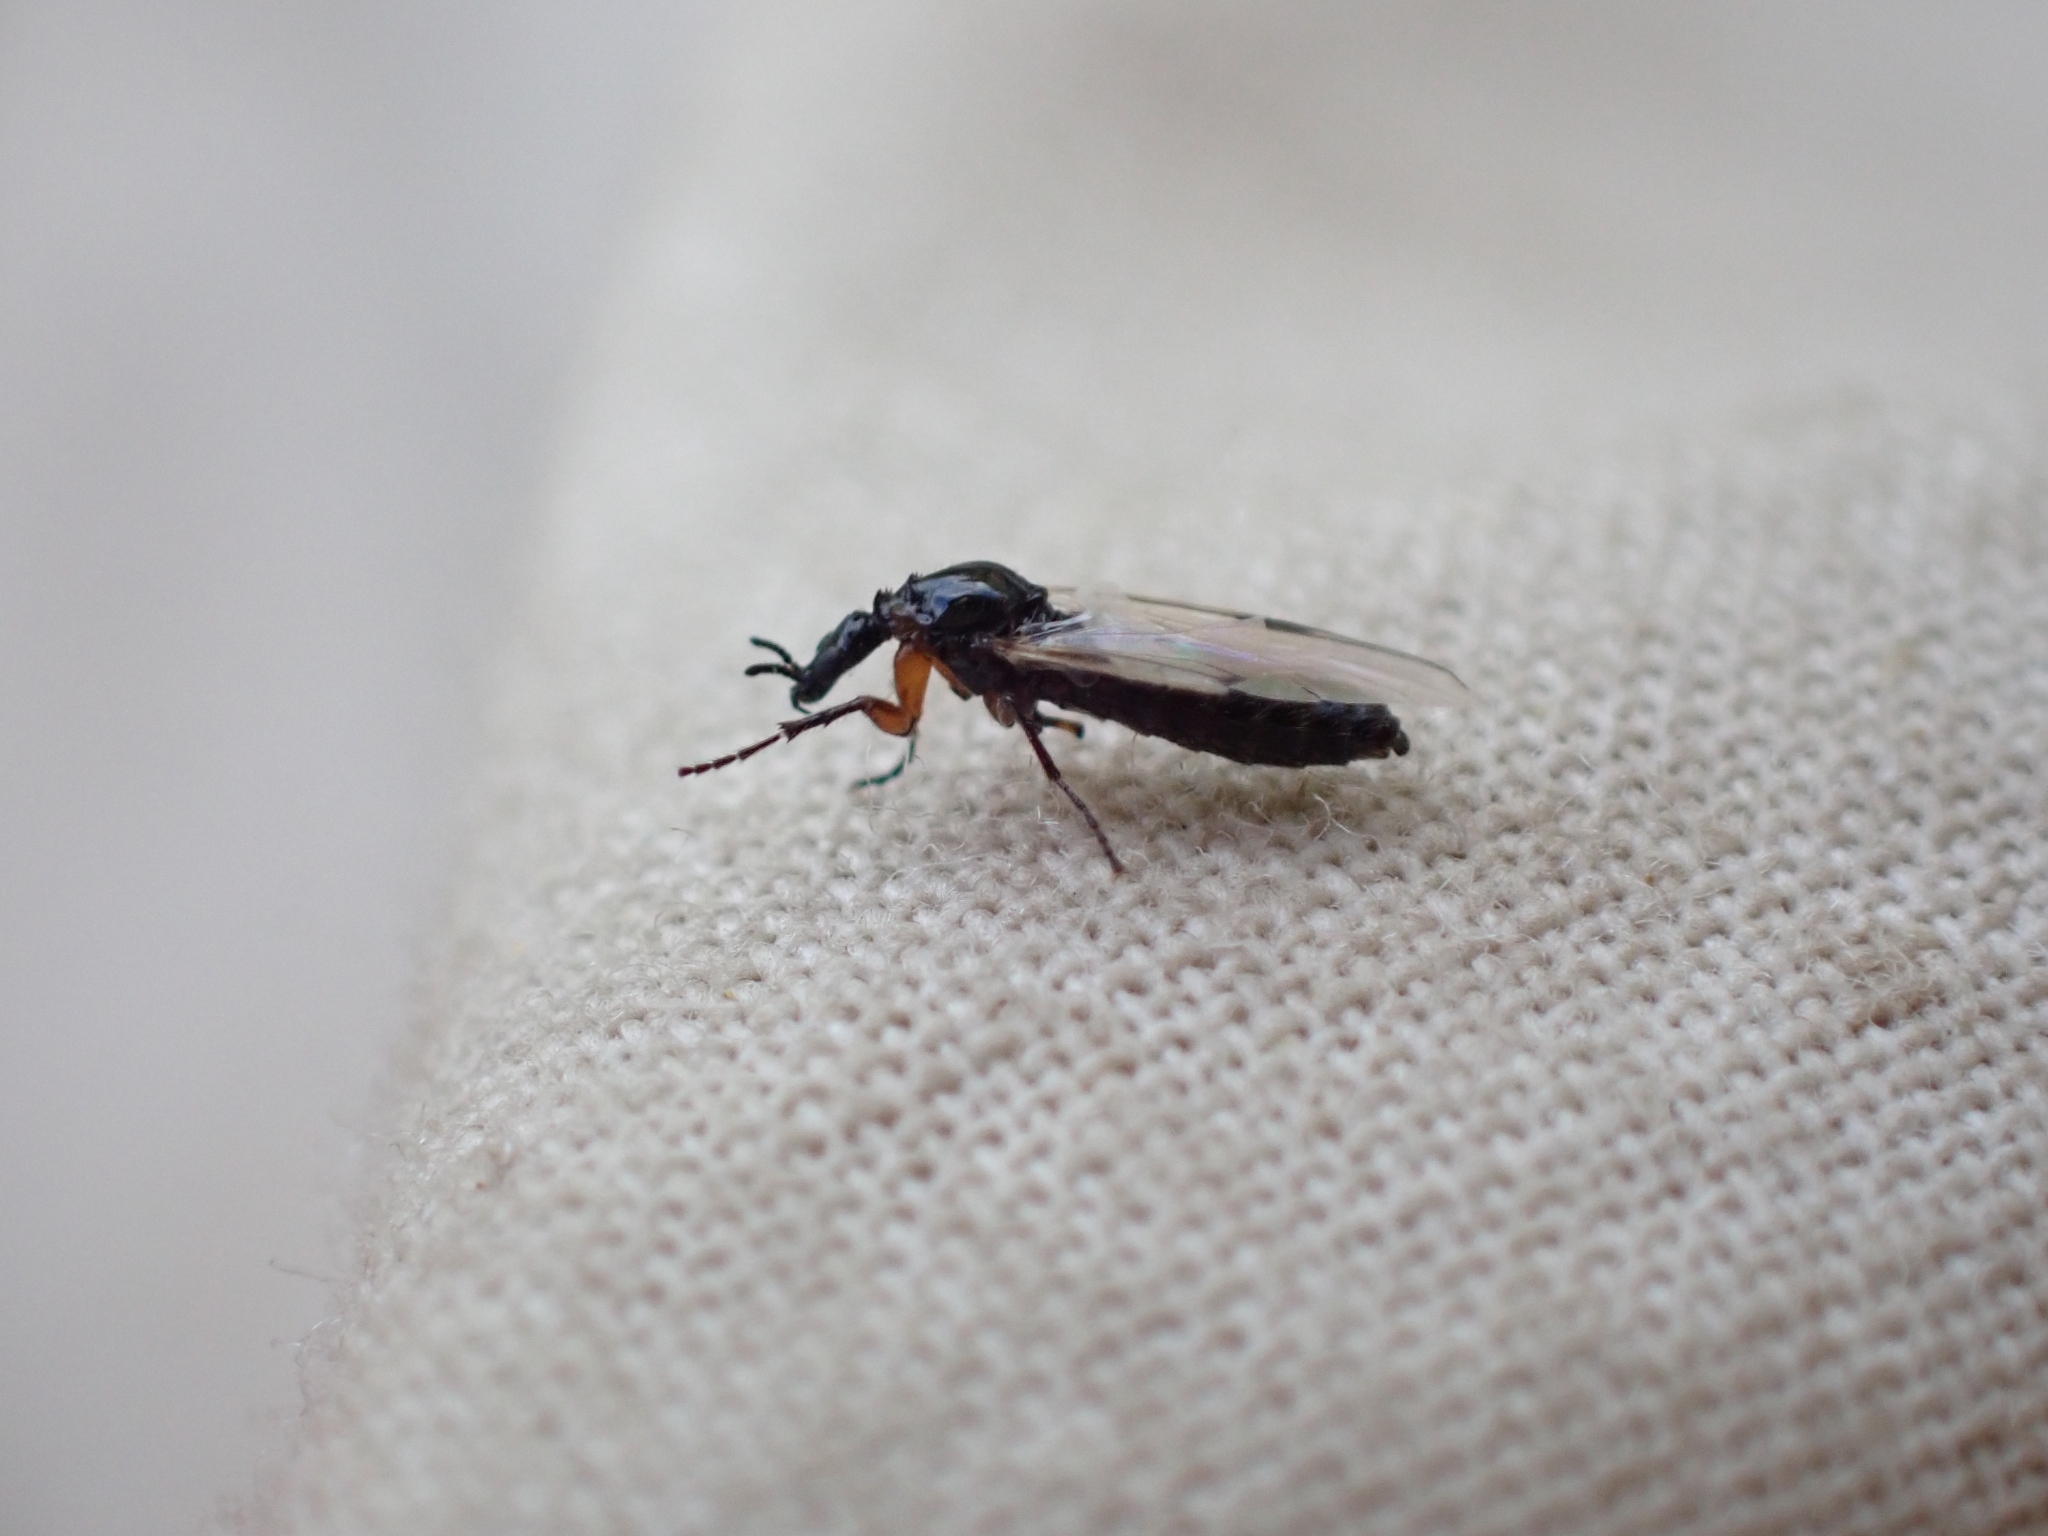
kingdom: Animalia
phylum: Arthropoda
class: Insecta
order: Diptera
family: Bibionidae
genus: Dilophus
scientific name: Dilophus
